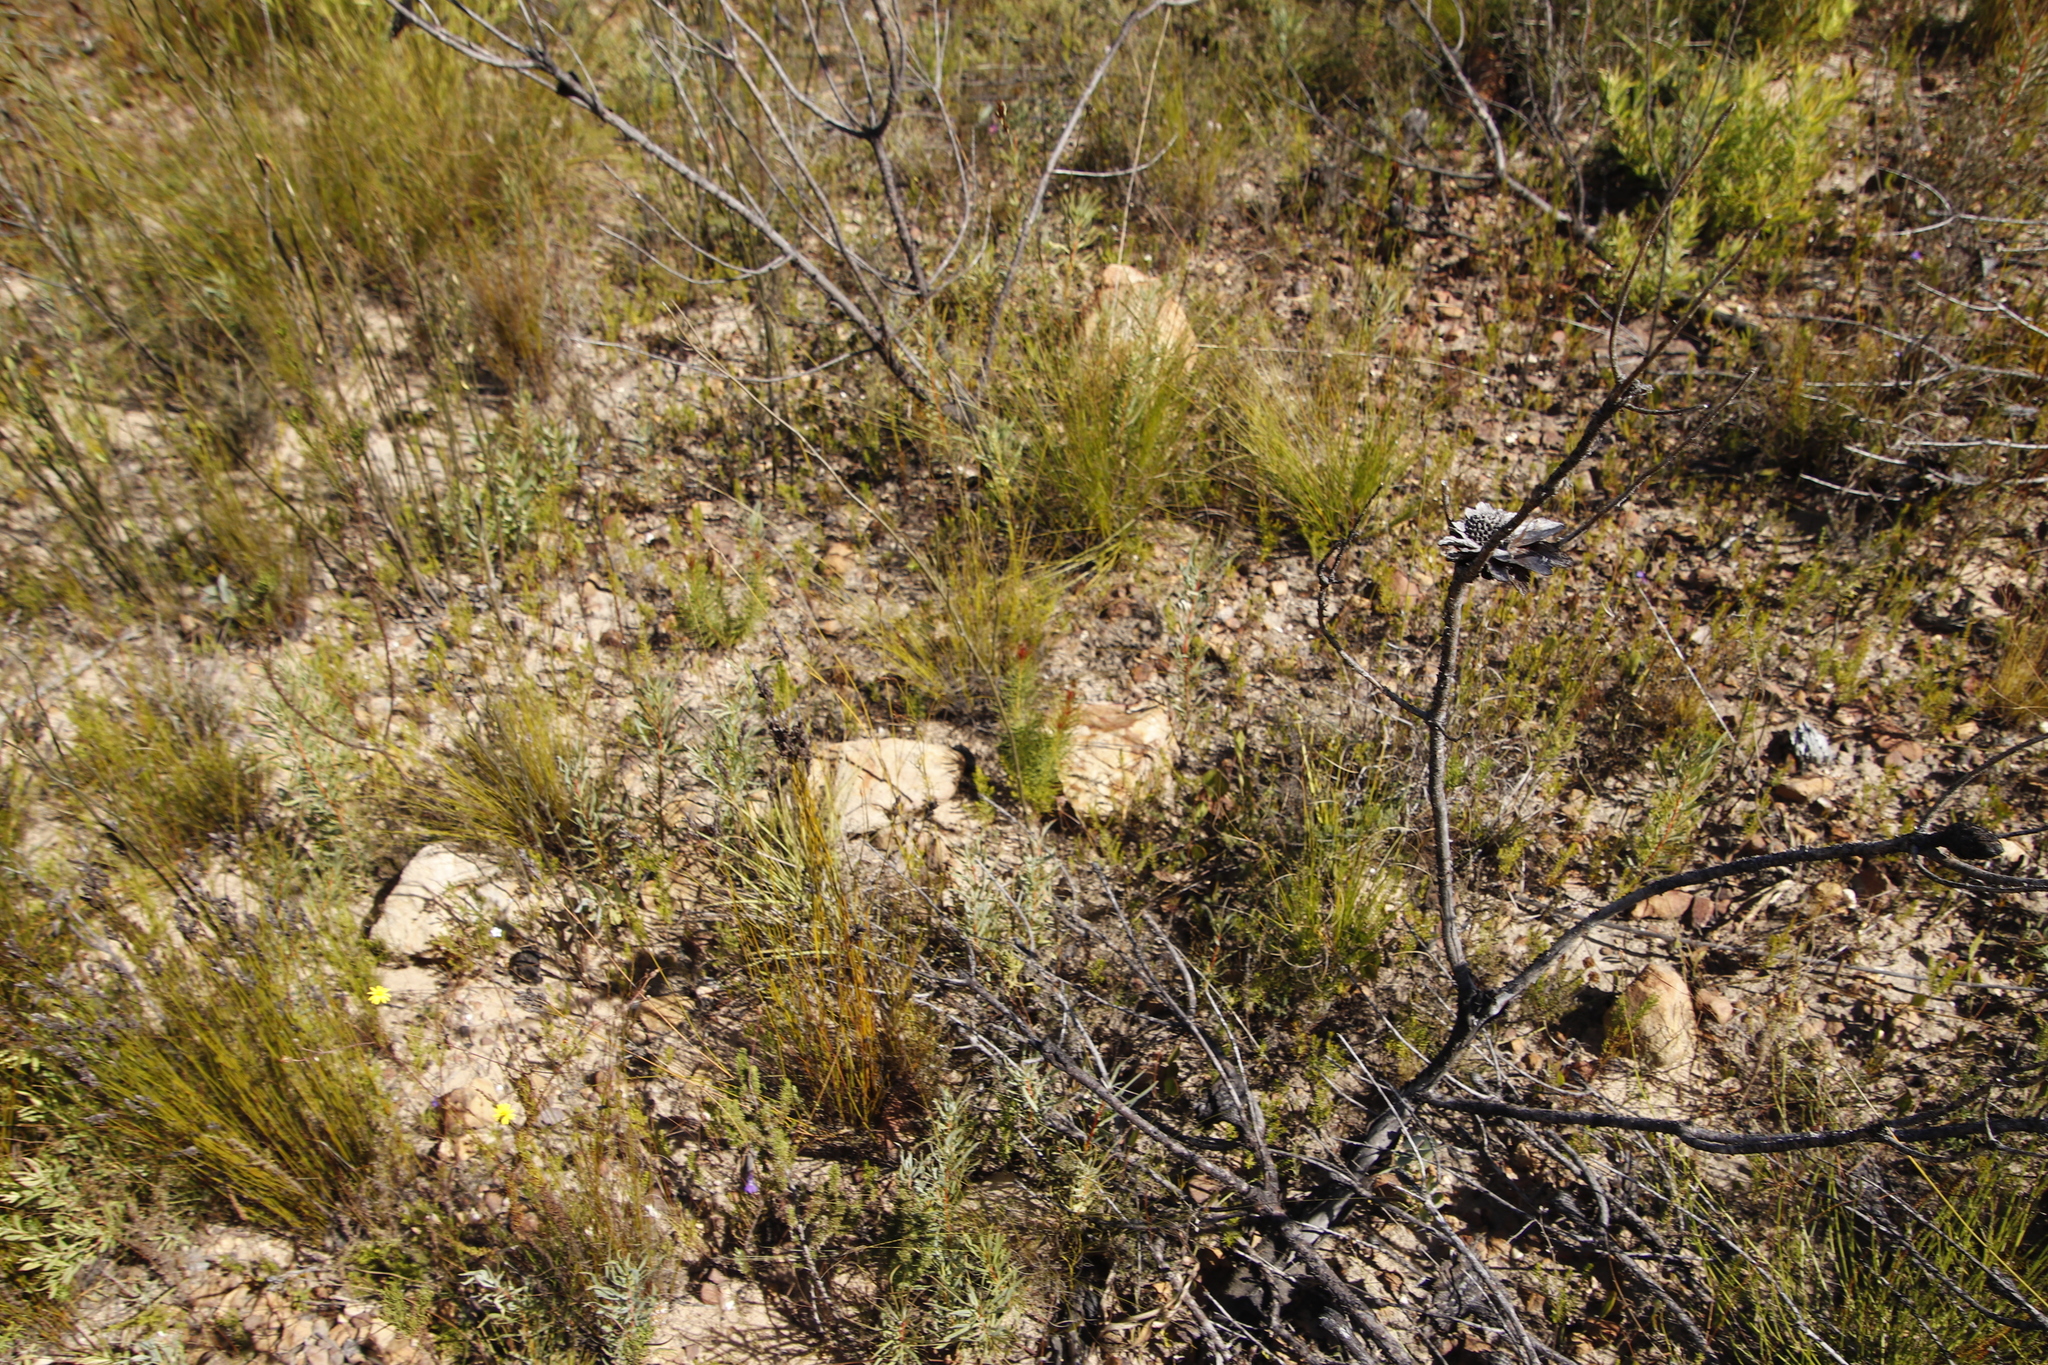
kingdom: Plantae
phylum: Tracheophyta
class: Magnoliopsida
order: Proteales
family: Proteaceae
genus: Protea
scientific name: Protea subulifolia
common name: Awl-leaf sugarbush
